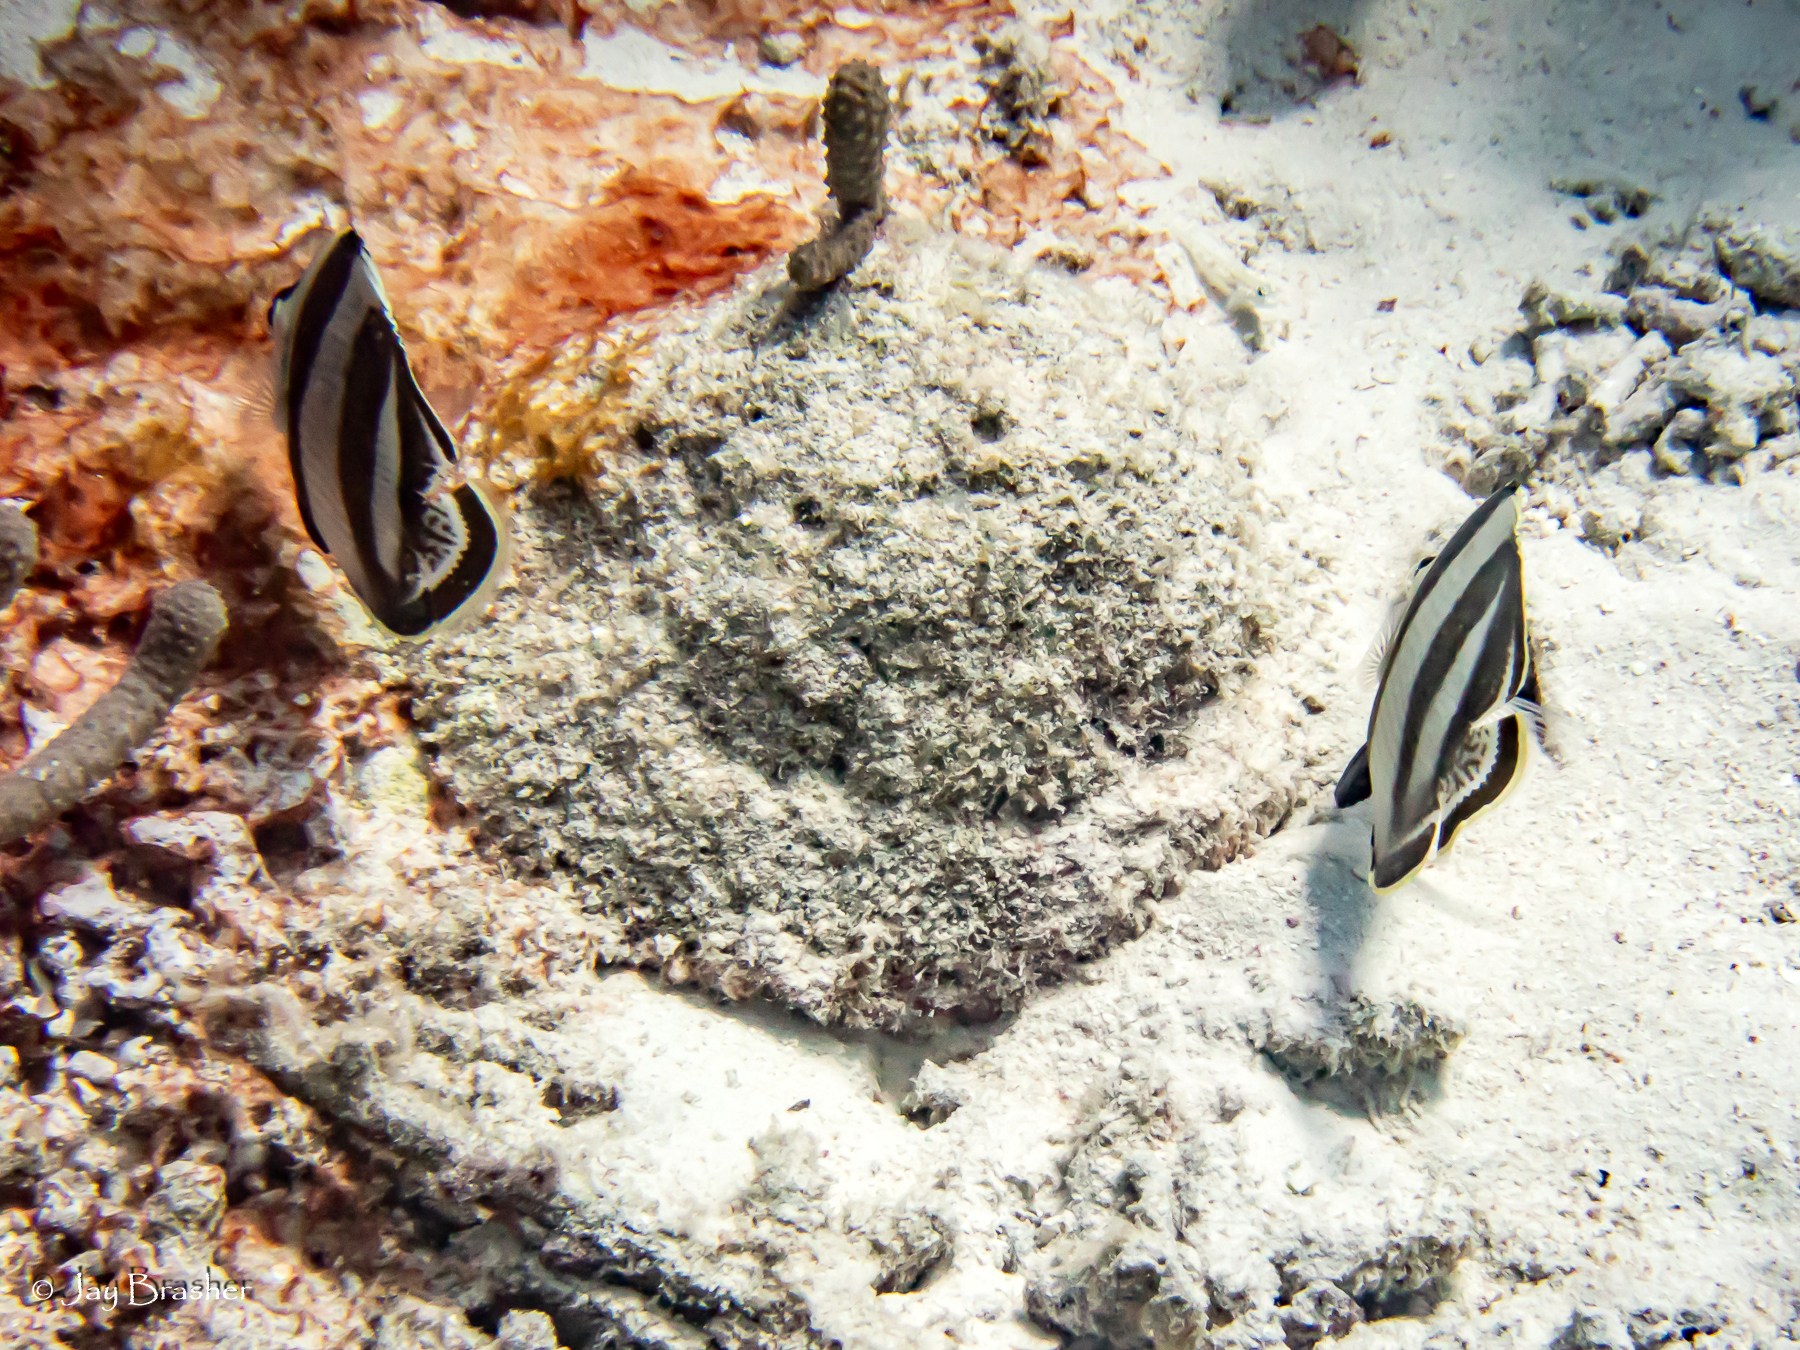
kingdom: Animalia
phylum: Chordata
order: Perciformes
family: Chaetodontidae
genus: Chaetodon
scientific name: Chaetodon striatus
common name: Banded butterflyfish
